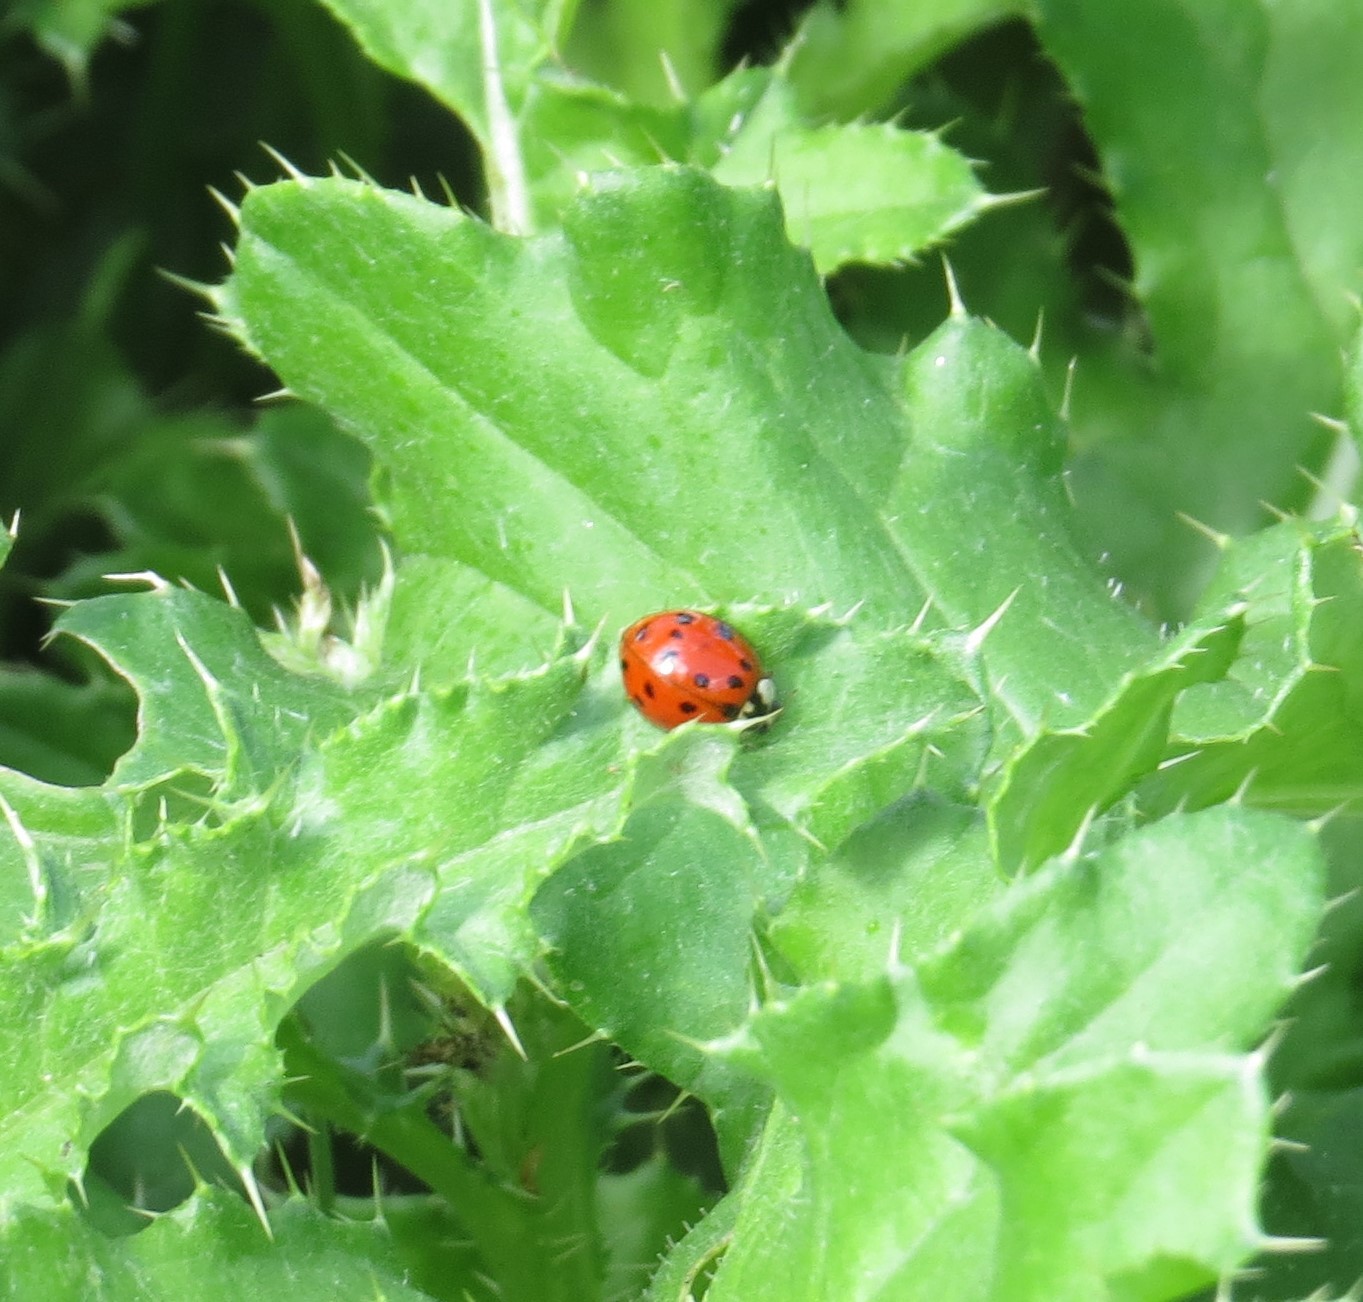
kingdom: Animalia
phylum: Arthropoda
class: Insecta
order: Coleoptera
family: Coccinellidae
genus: Harmonia
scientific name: Harmonia axyridis
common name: Harlequin ladybird
